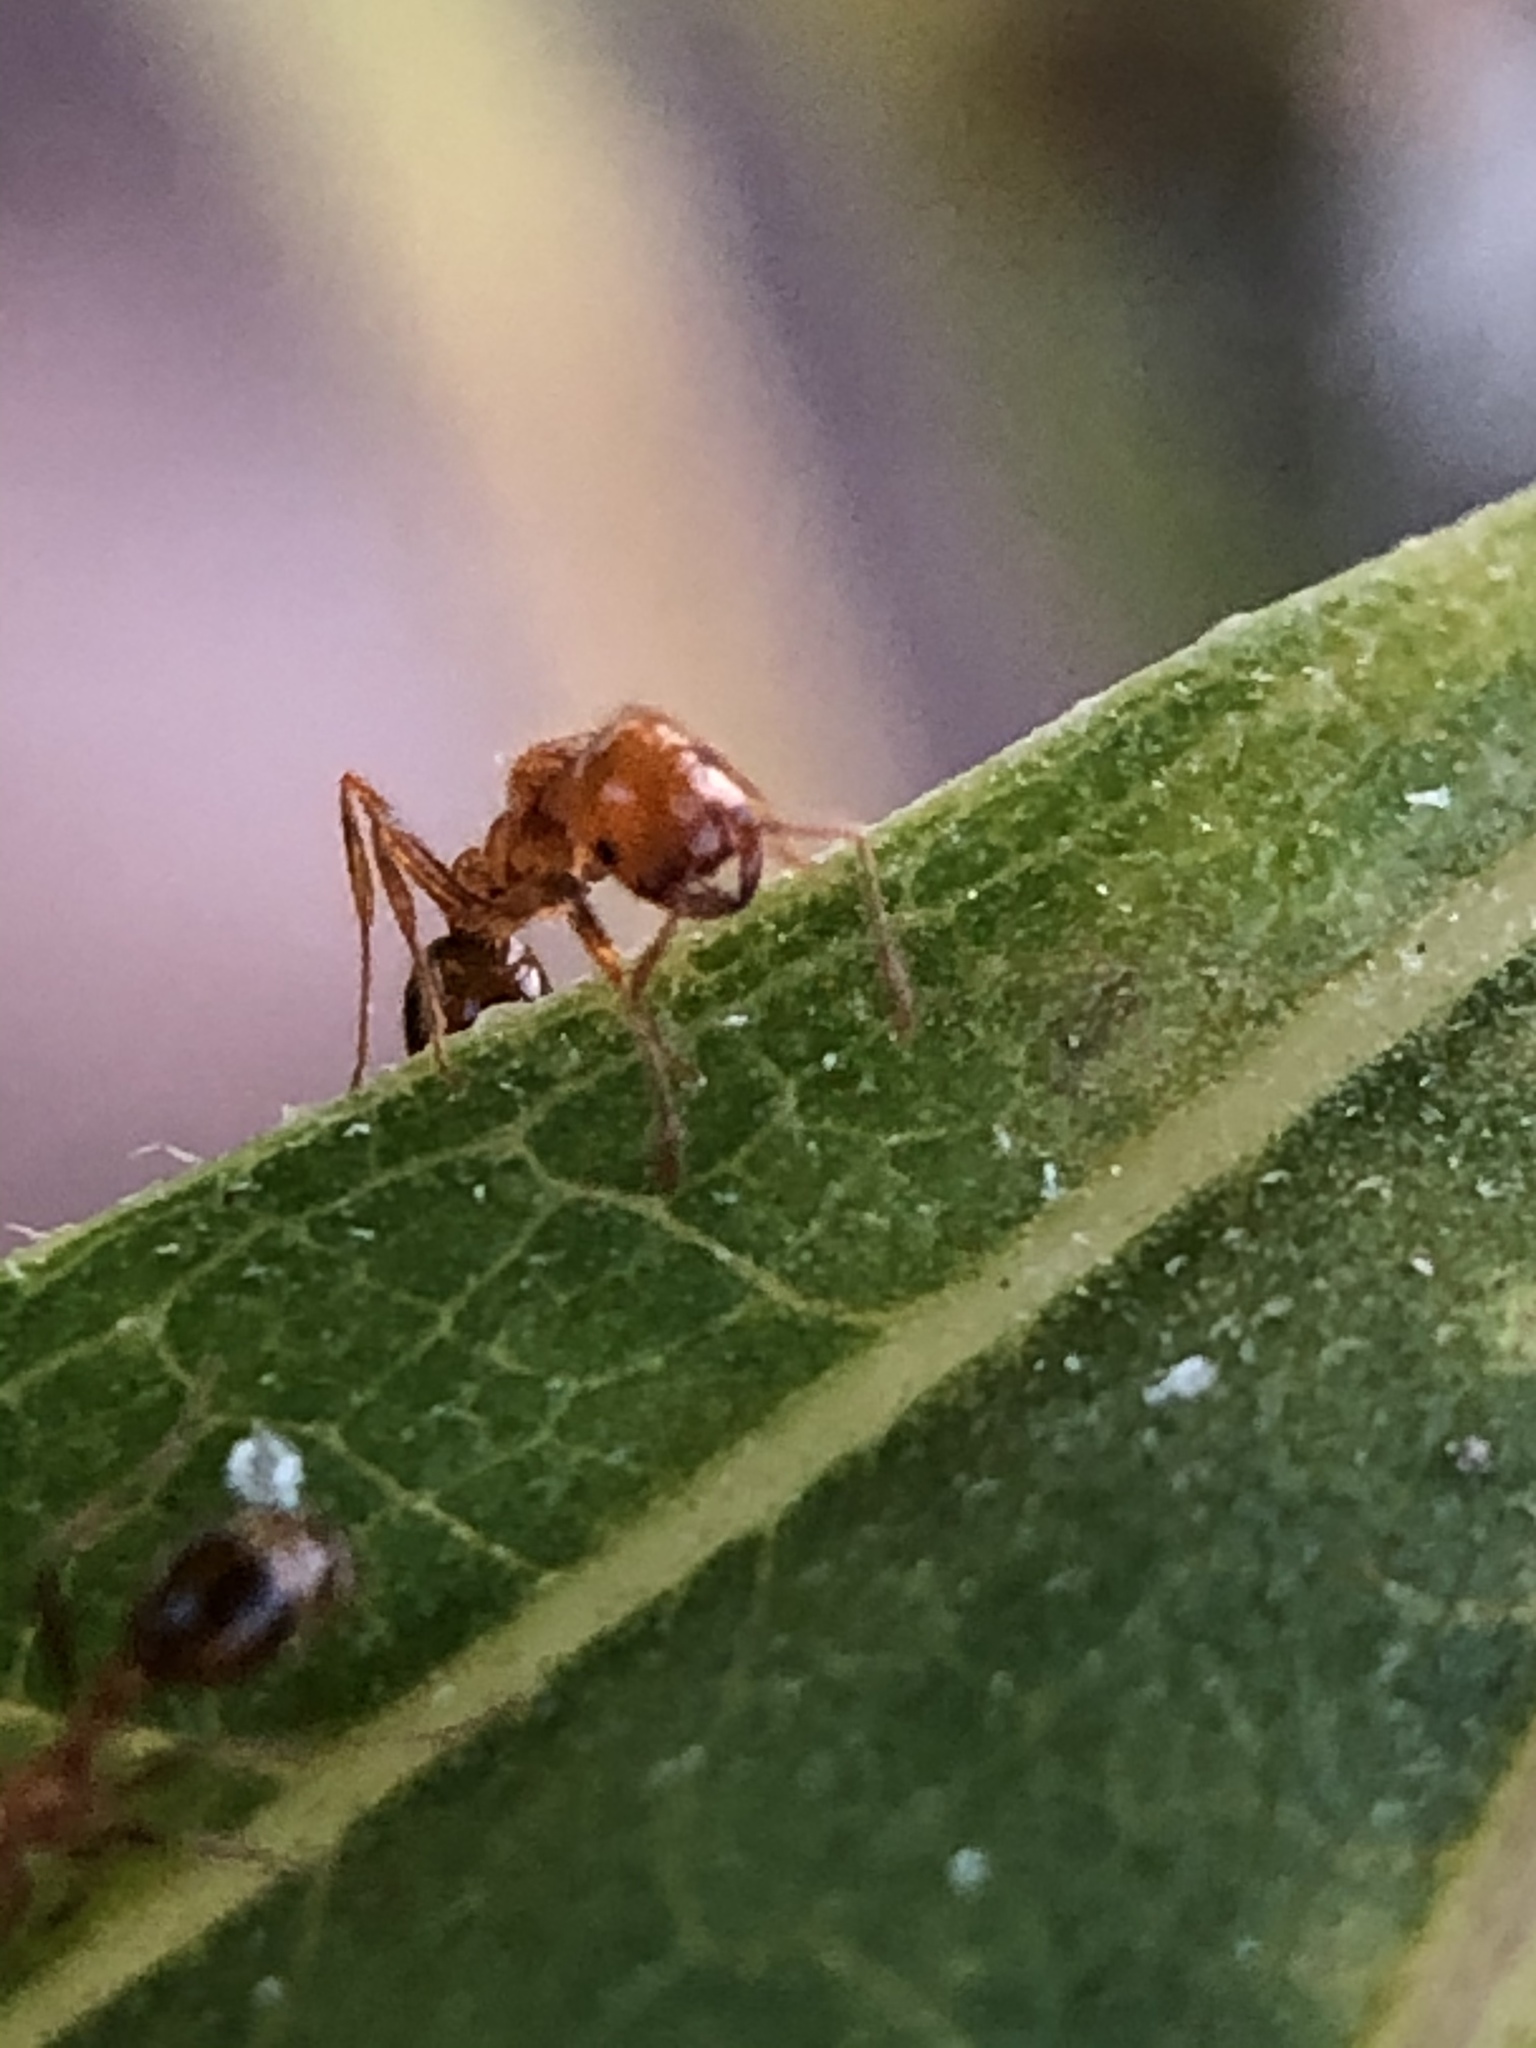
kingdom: Animalia
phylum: Arthropoda
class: Insecta
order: Hymenoptera
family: Formicidae
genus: Solenopsis
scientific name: Solenopsis geminata
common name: Tropical fire ant
